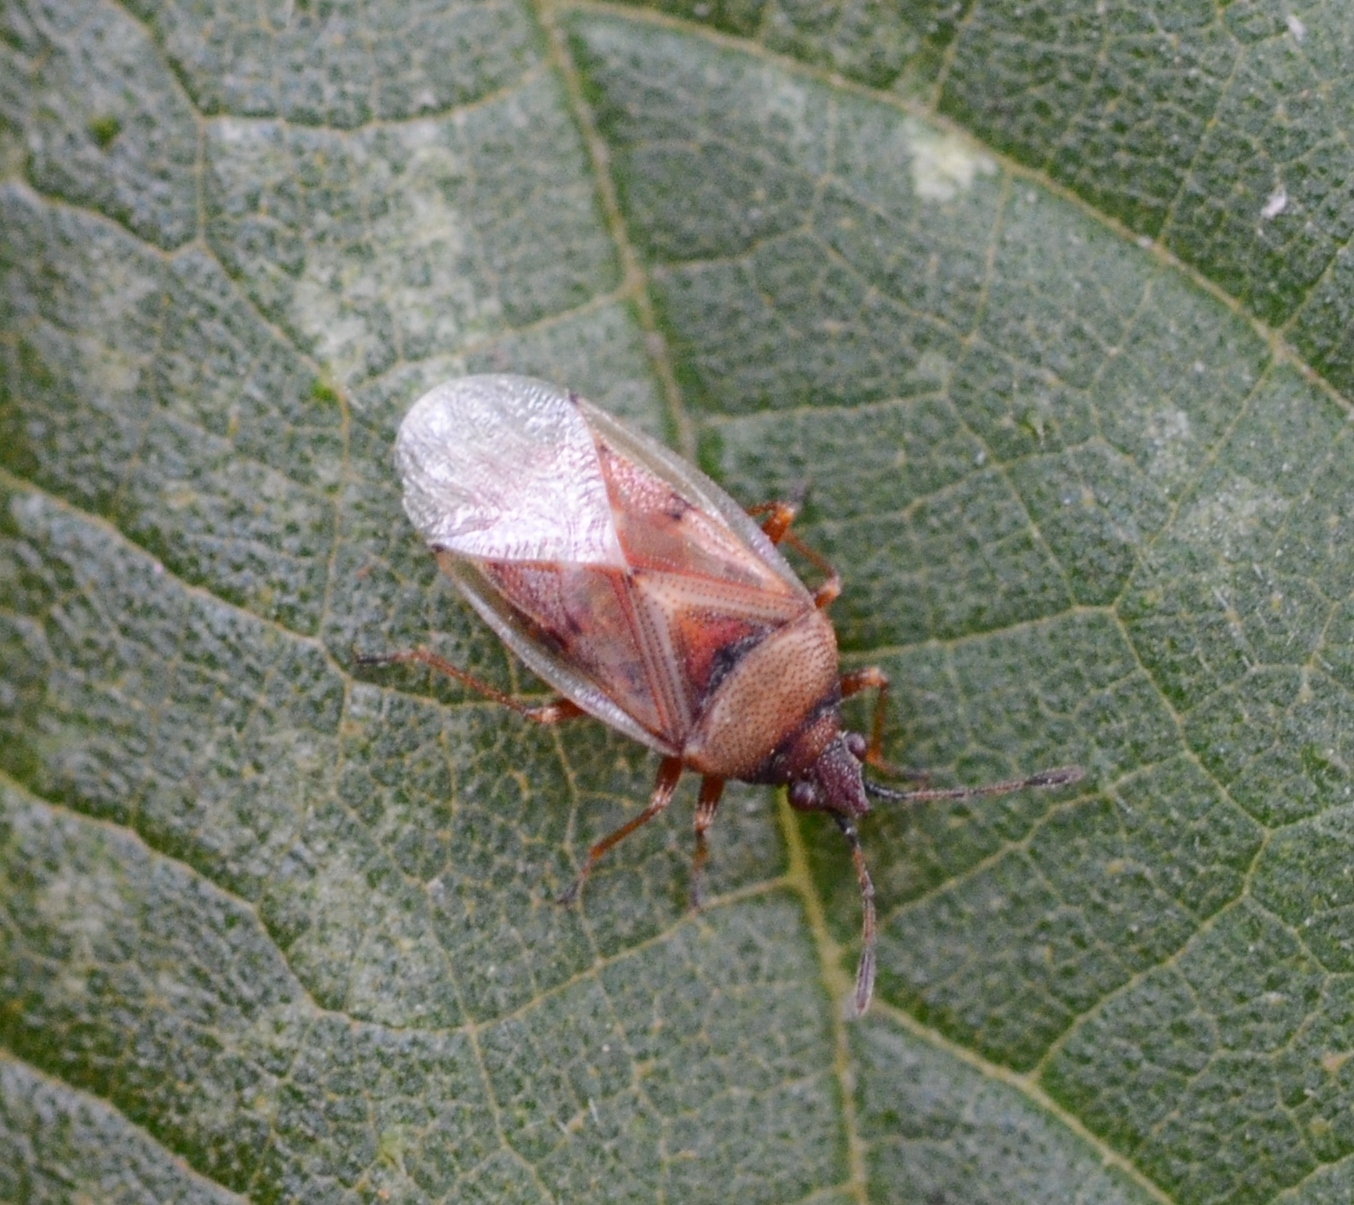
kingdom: Animalia
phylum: Arthropoda
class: Insecta
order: Hemiptera
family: Lygaeidae
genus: Kleidocerys
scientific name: Kleidocerys resedae
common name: Birch catkin bug
